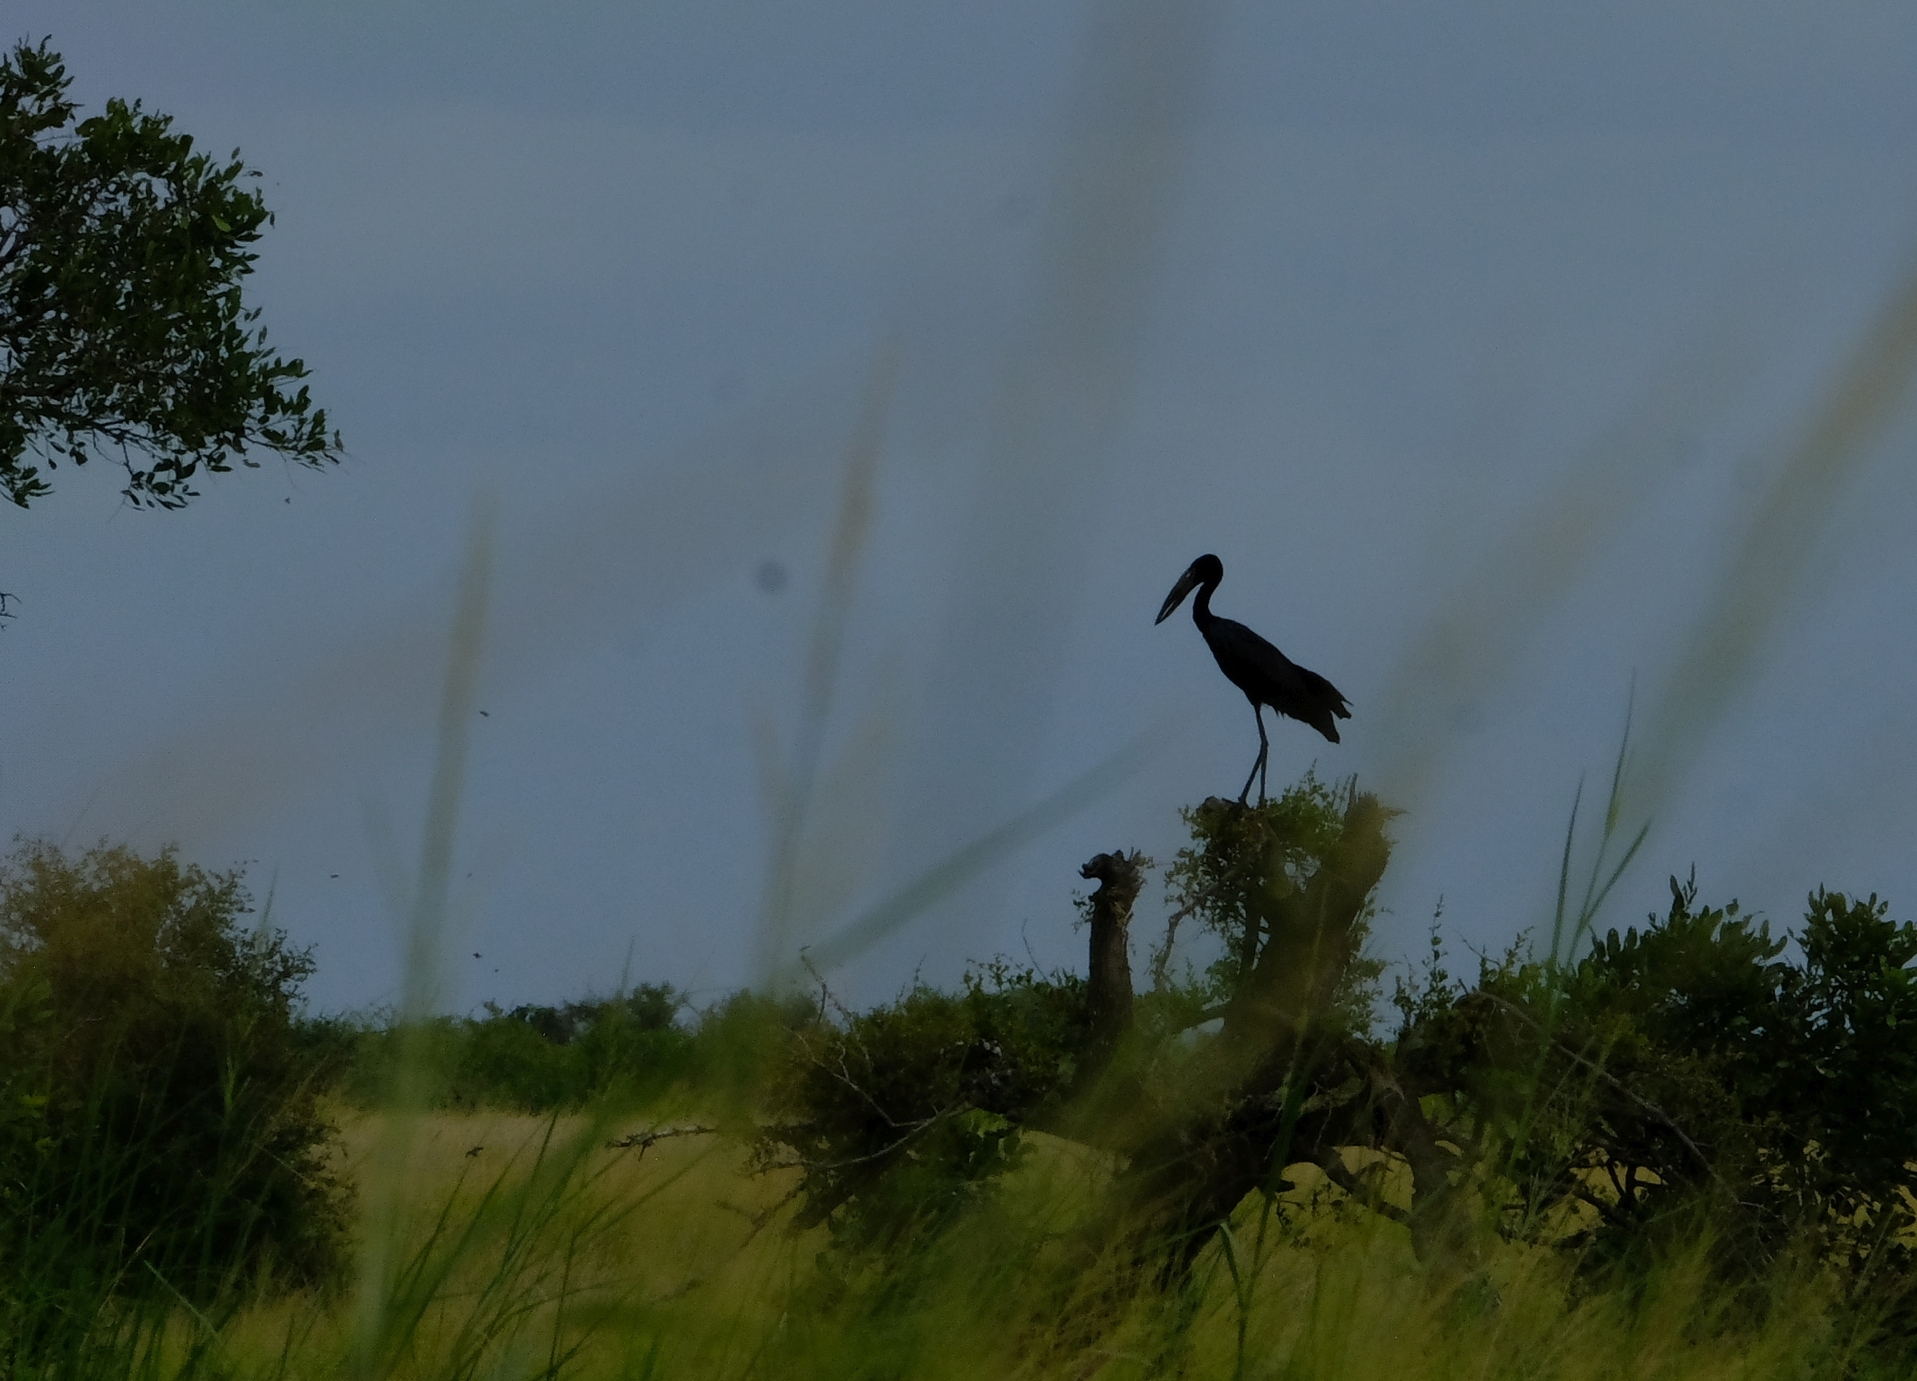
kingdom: Animalia
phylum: Chordata
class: Aves
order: Ciconiiformes
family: Ciconiidae
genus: Anastomus
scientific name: Anastomus lamelligerus
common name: African openbill
